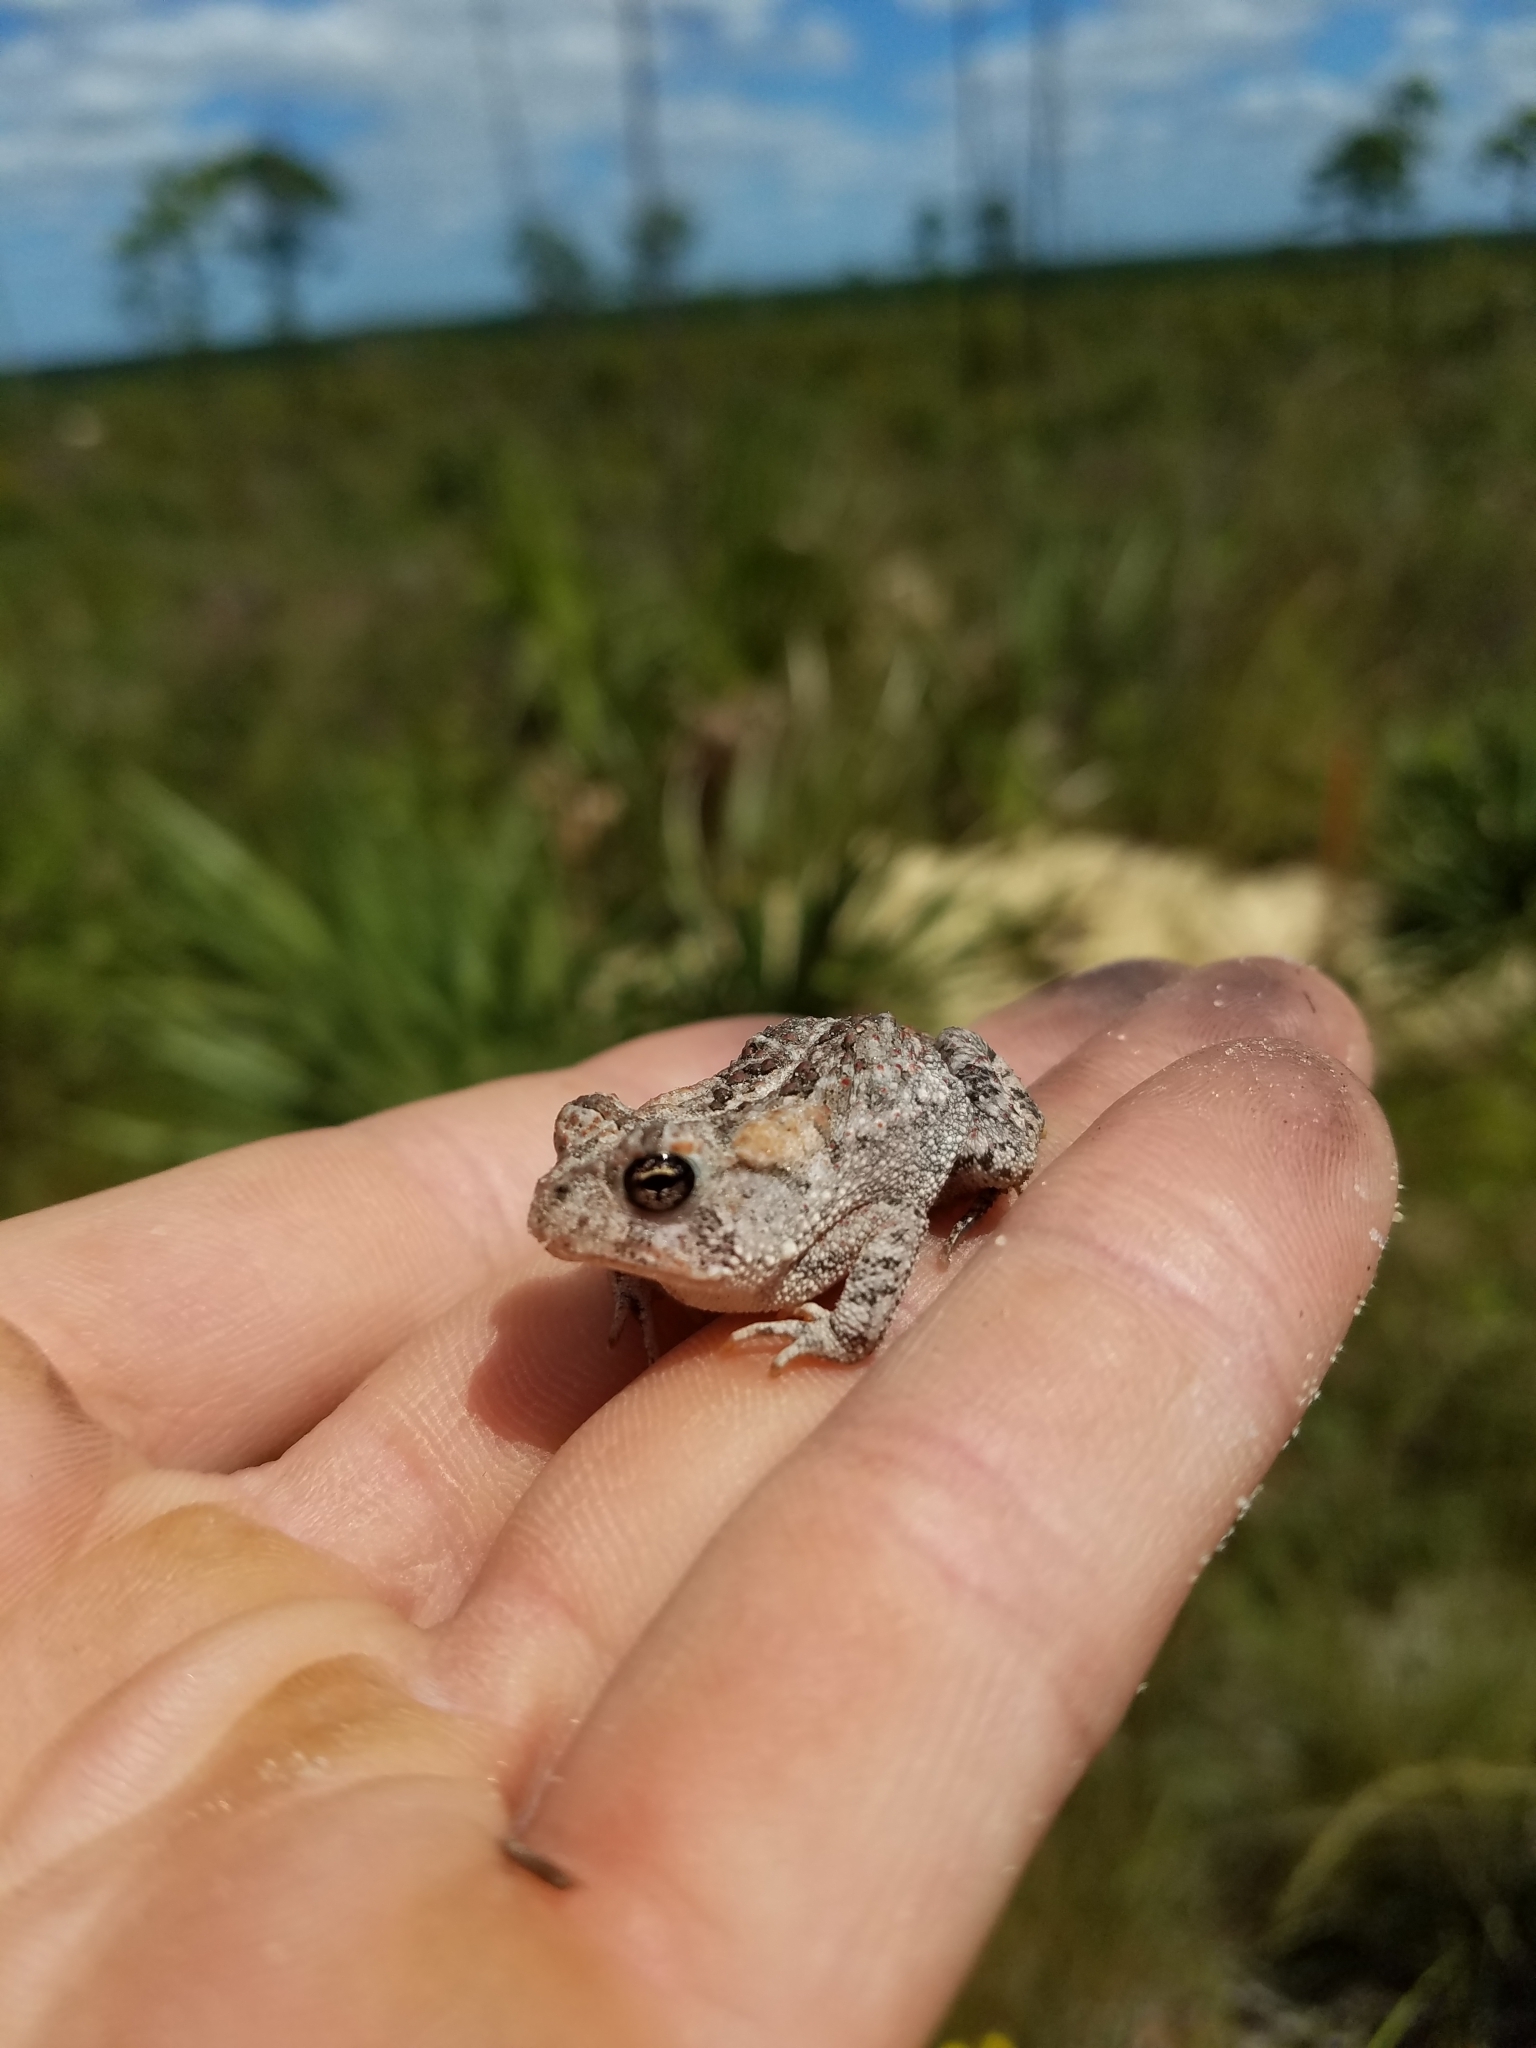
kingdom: Animalia
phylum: Chordata
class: Amphibia
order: Anura
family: Bufonidae
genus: Anaxyrus
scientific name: Anaxyrus terrestris
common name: Southern toad
